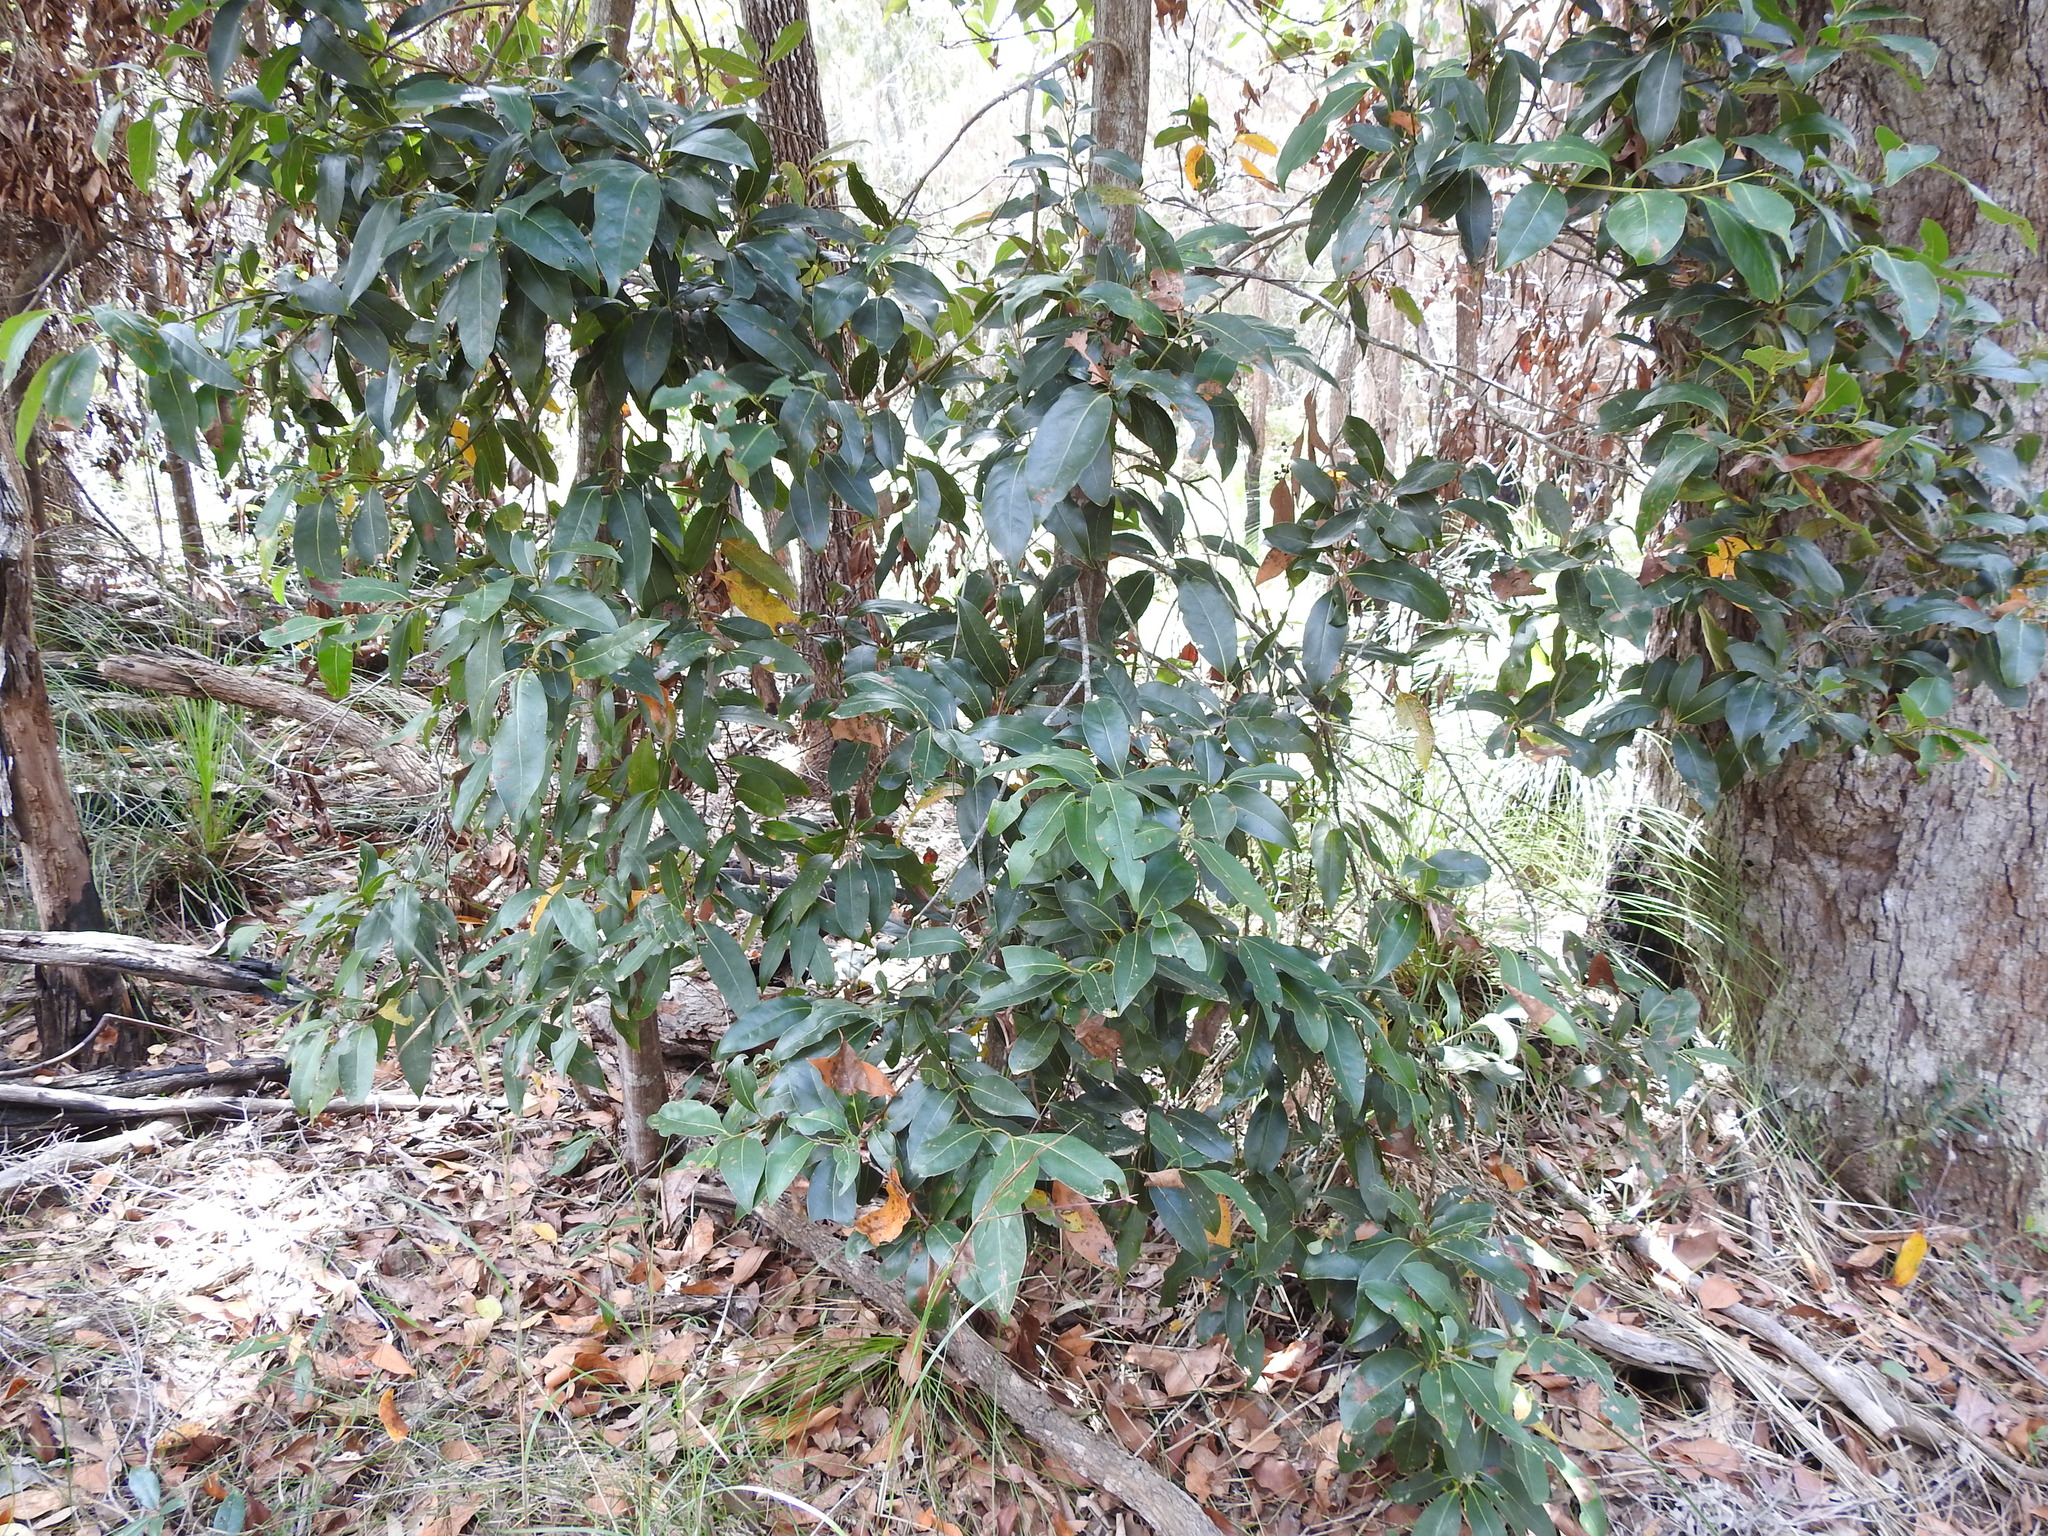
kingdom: Plantae
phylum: Tracheophyta
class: Magnoliopsida
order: Laurales
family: Lauraceae
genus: Cryptocarya
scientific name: Cryptocarya glaucescens
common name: Bolly-laurel
